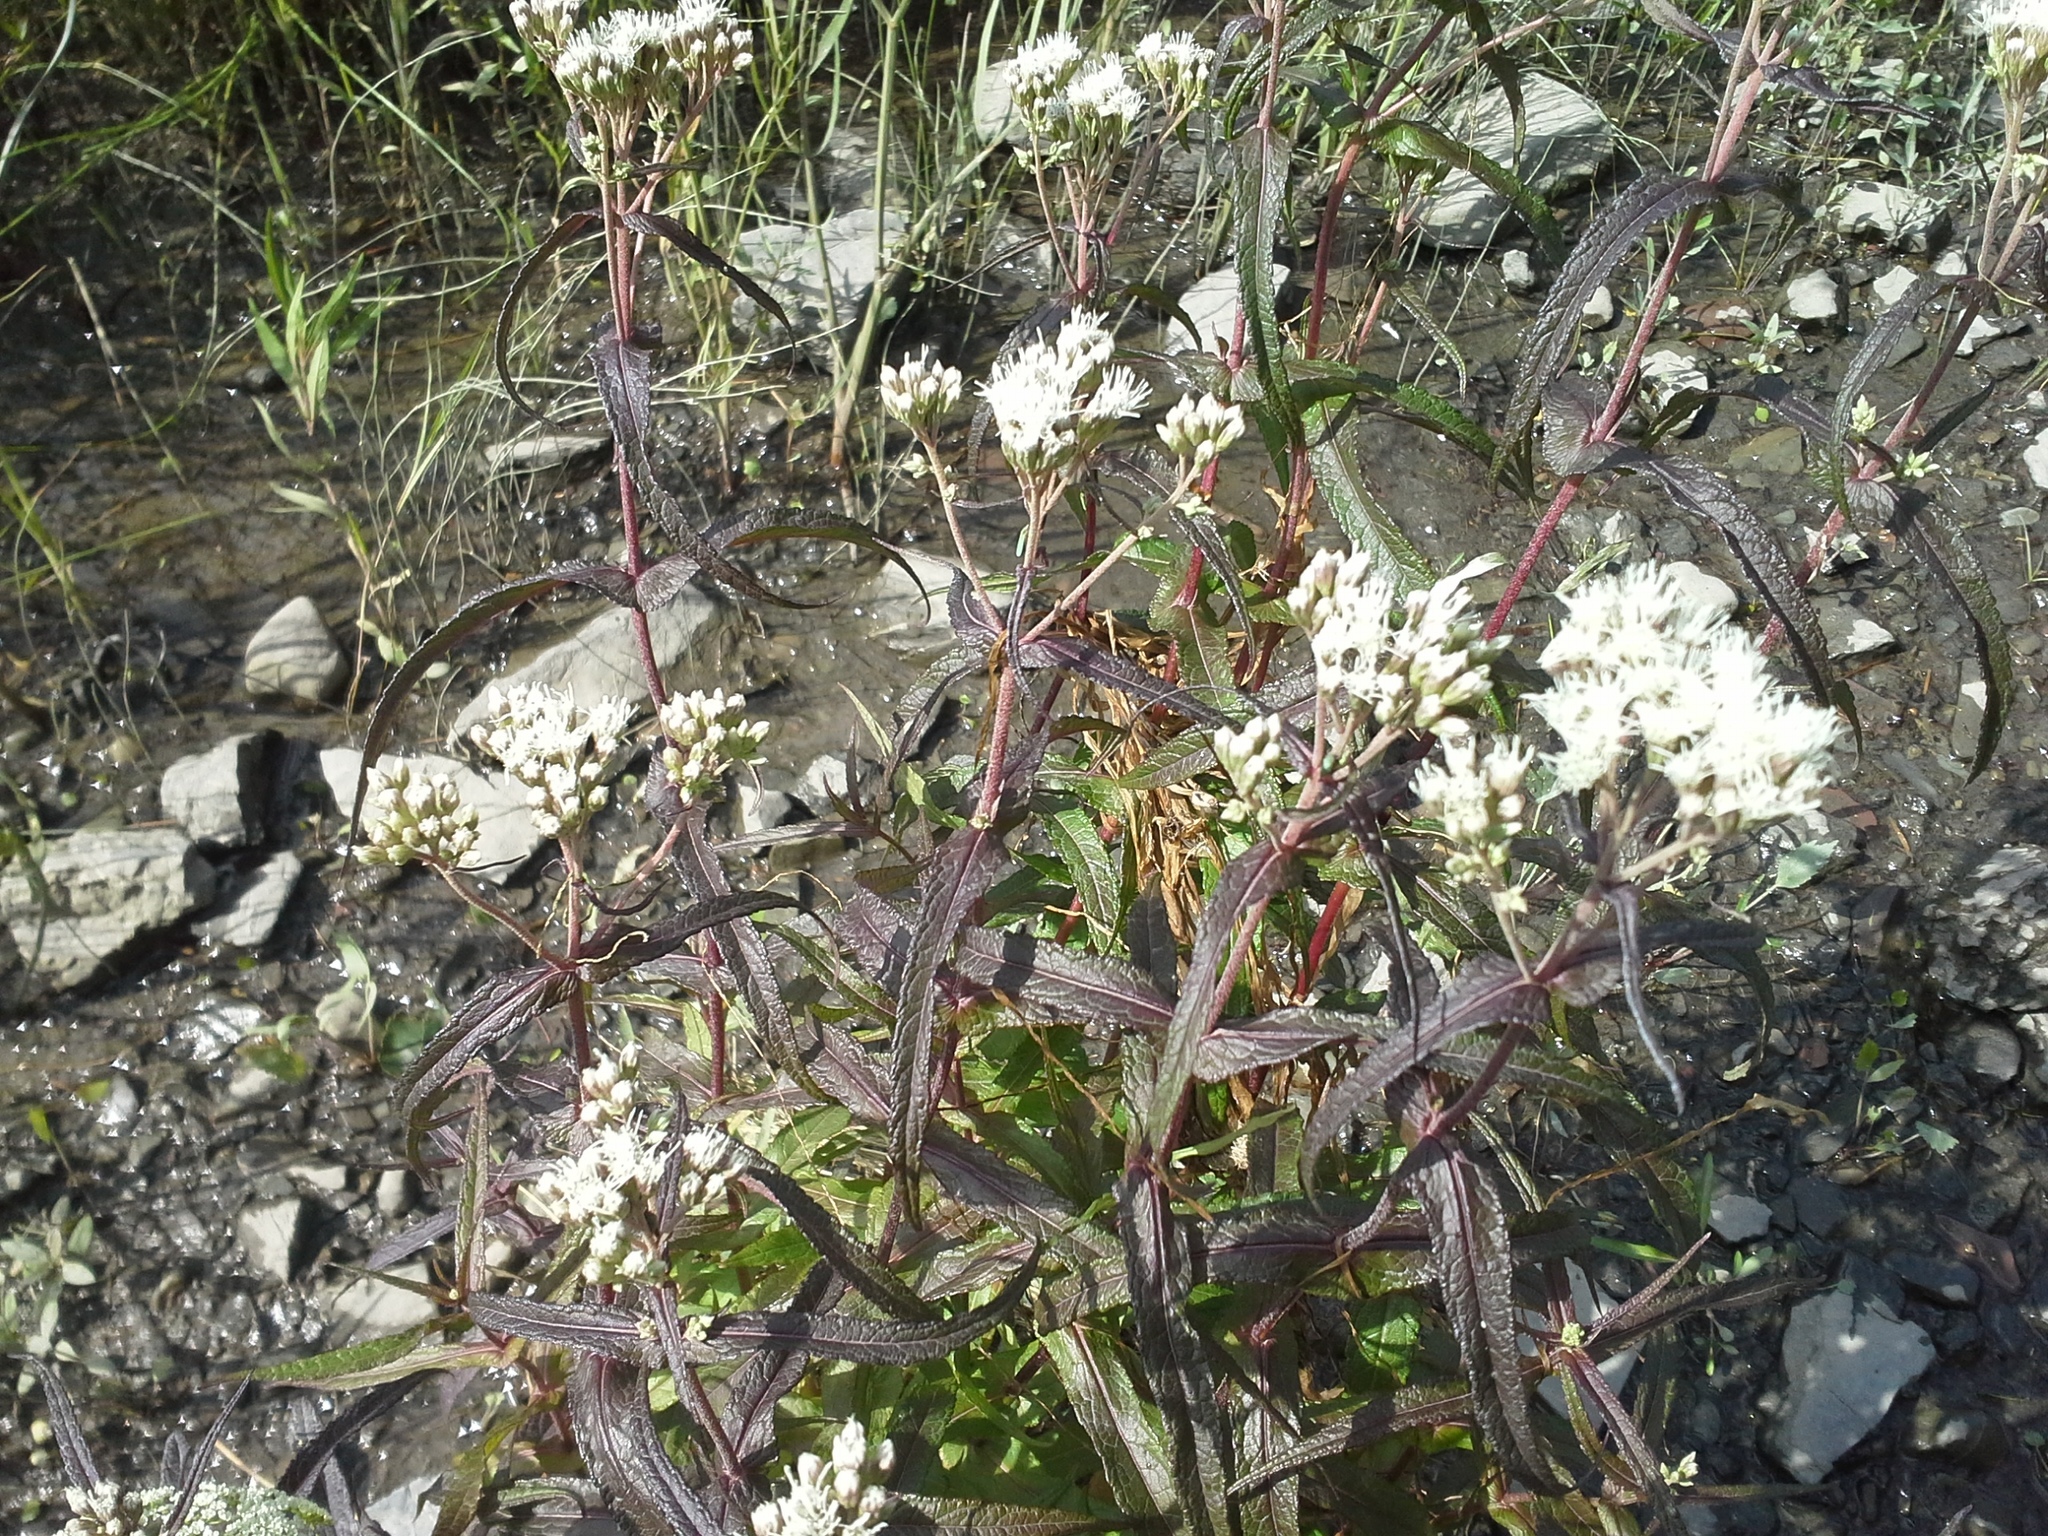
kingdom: Plantae
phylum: Tracheophyta
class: Magnoliopsida
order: Asterales
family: Asteraceae
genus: Eupatorium
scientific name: Eupatorium perfoliatum
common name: Boneset
